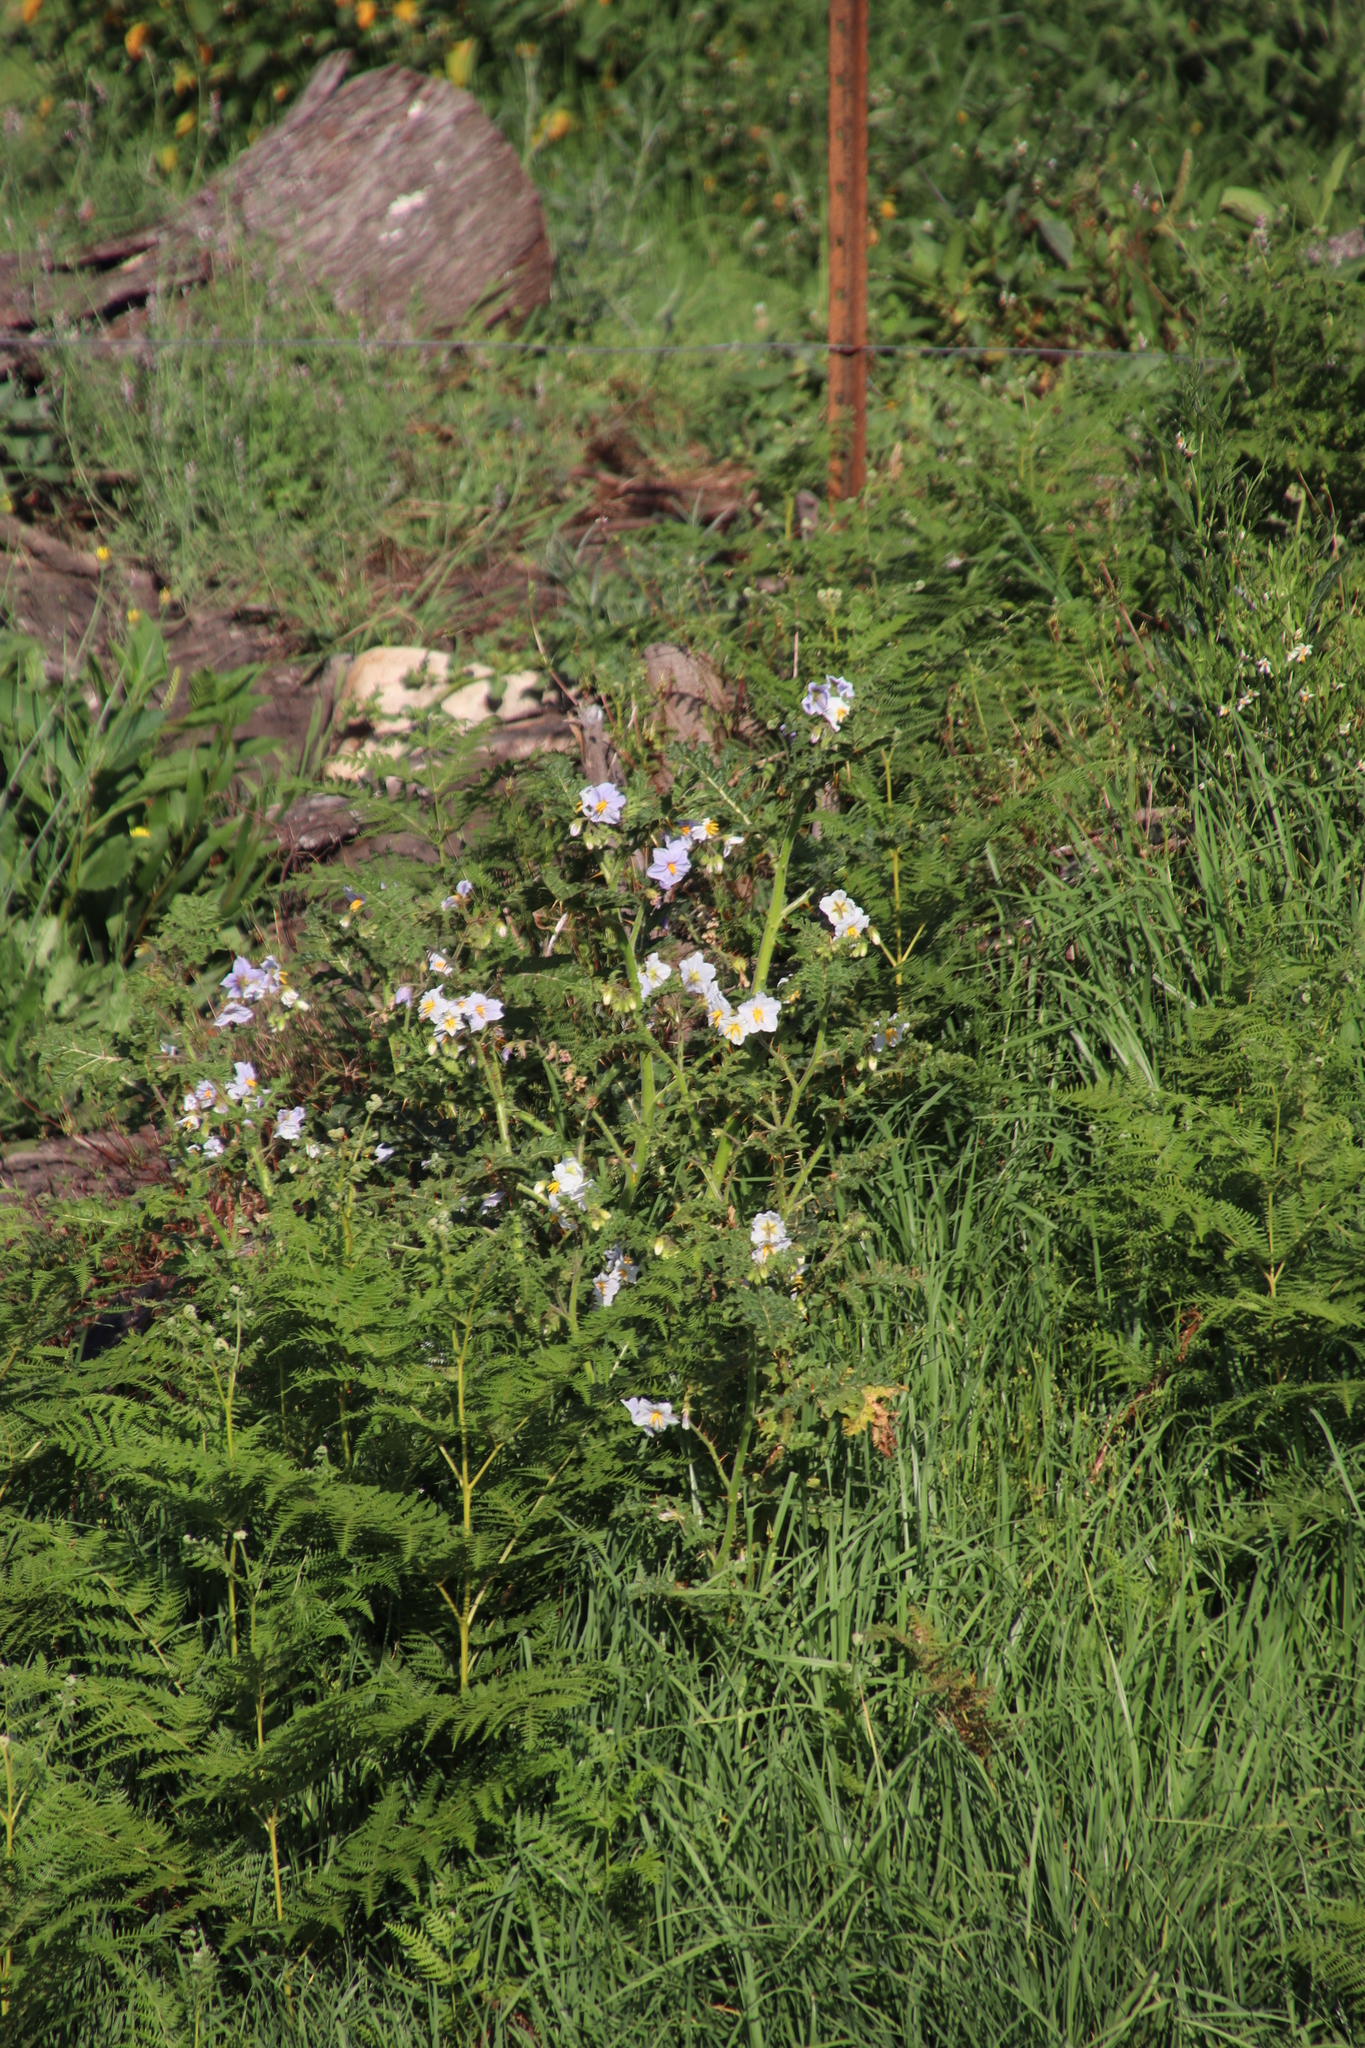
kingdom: Plantae
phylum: Tracheophyta
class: Magnoliopsida
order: Solanales
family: Solanaceae
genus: Solanum
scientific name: Solanum sisymbriifolium
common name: Red buffalo-bur
